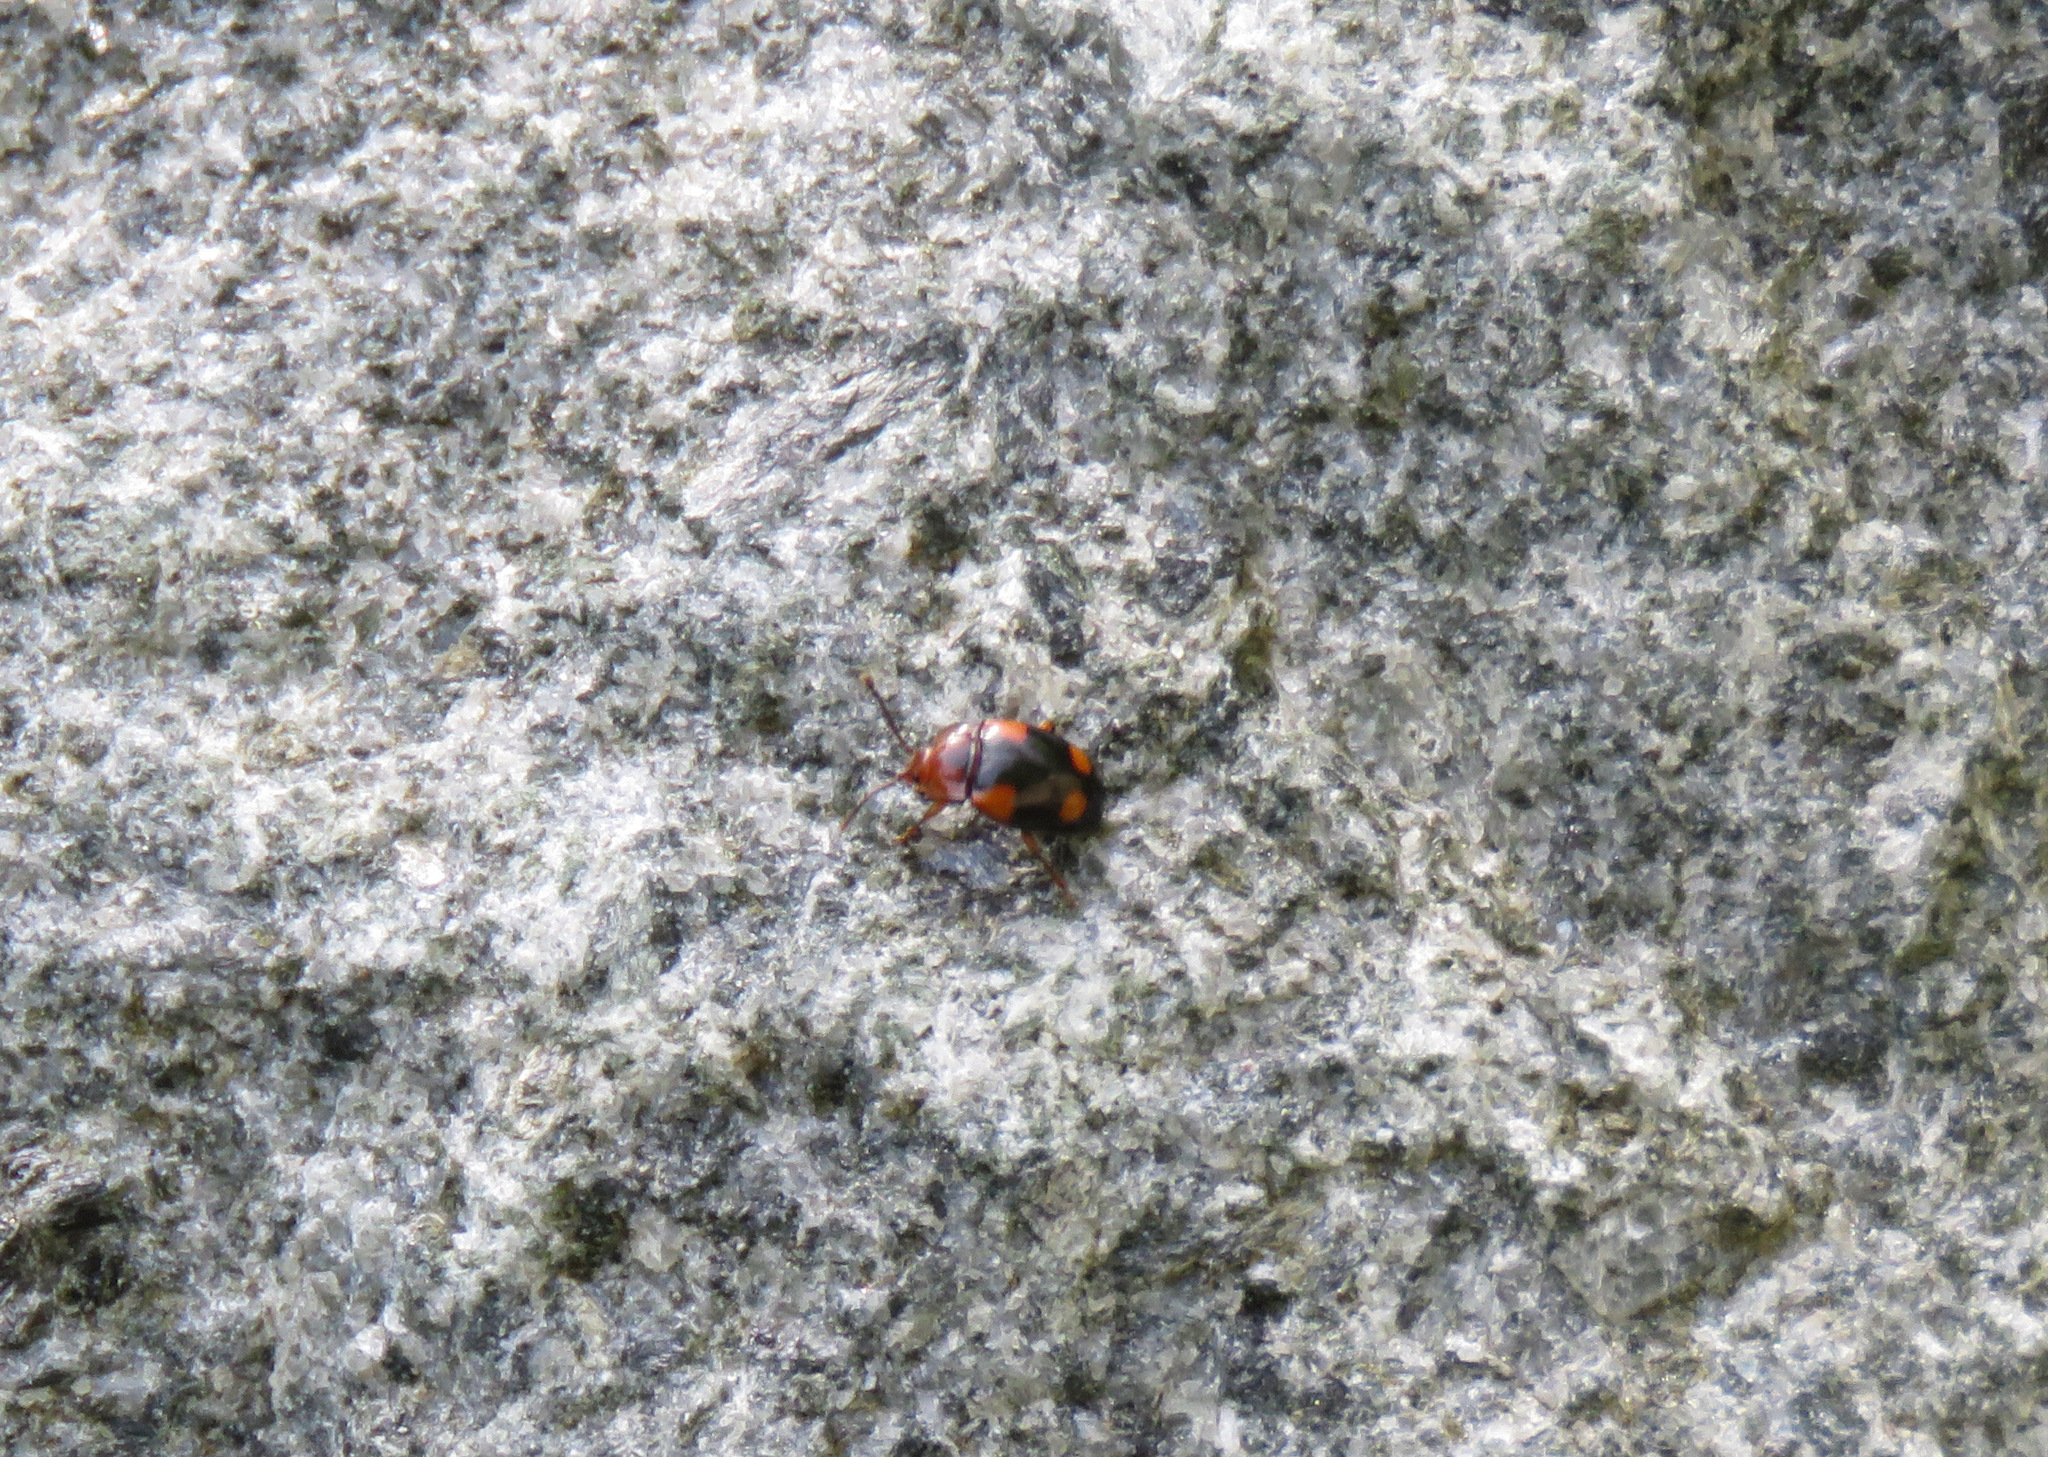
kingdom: Animalia
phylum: Arthropoda
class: Insecta
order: Coleoptera
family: Endomychidae
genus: Mycetina
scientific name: Mycetina idahoensis
